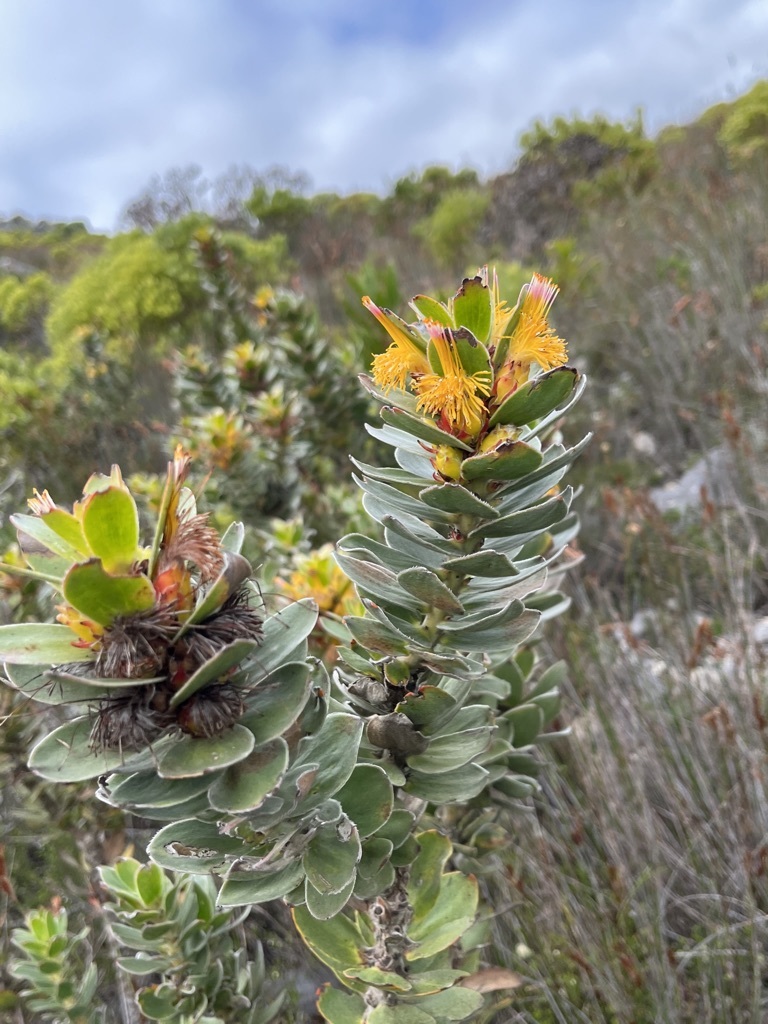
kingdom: Plantae
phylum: Tracheophyta
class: Magnoliopsida
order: Proteales
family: Proteaceae
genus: Mimetes
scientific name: Mimetes saxatilis
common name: Limestone pagoda
